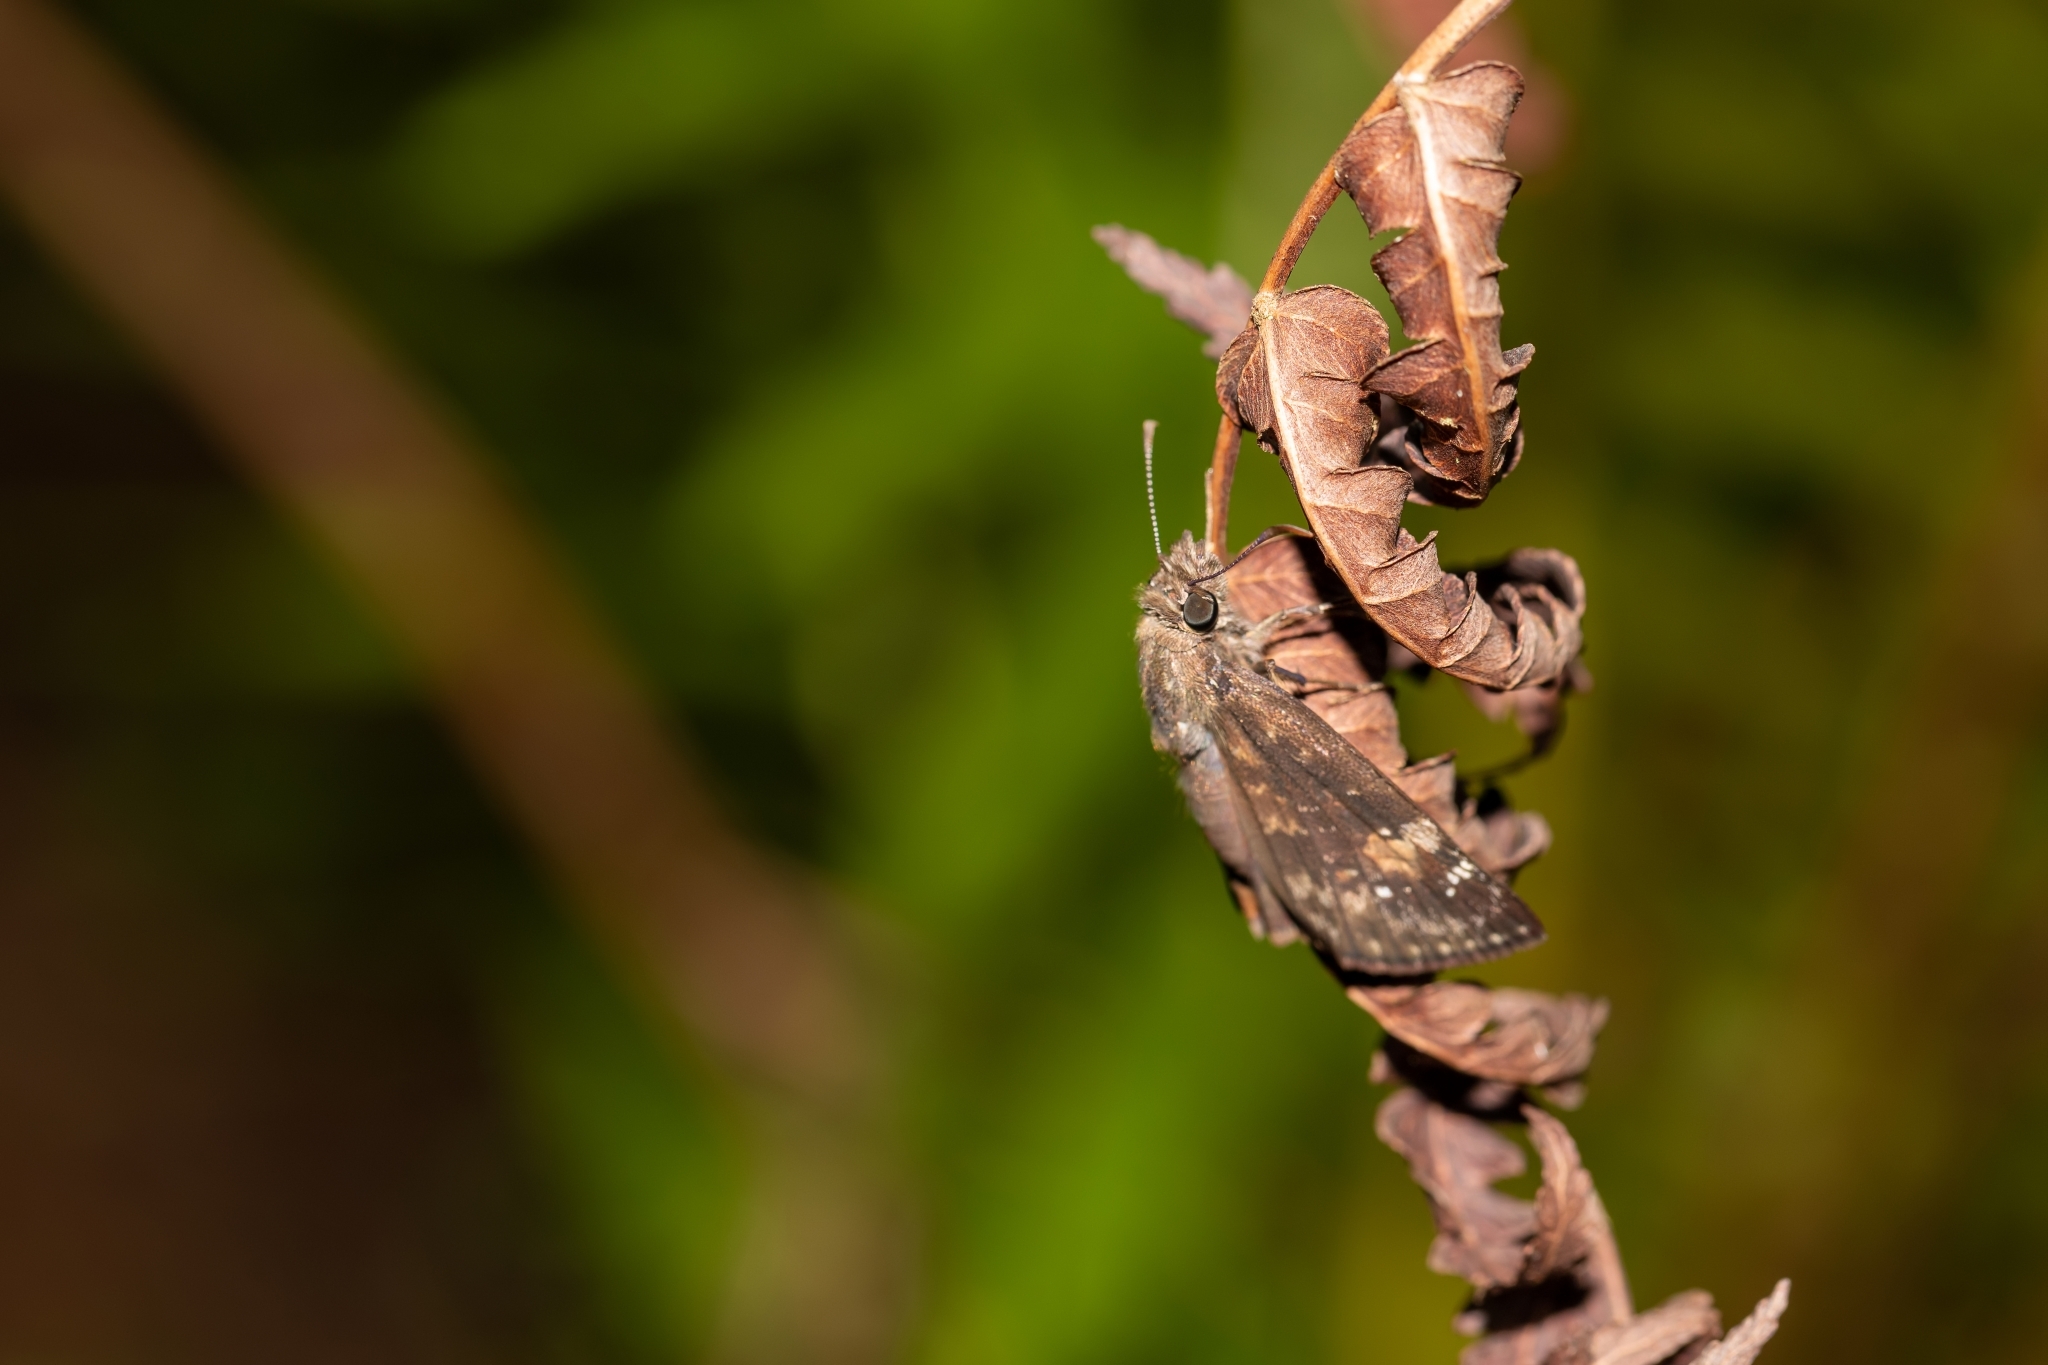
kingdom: Animalia
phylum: Arthropoda
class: Insecta
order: Lepidoptera
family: Hesperiidae
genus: Erynnis
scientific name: Erynnis zarucco
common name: Zarucco duskywing
